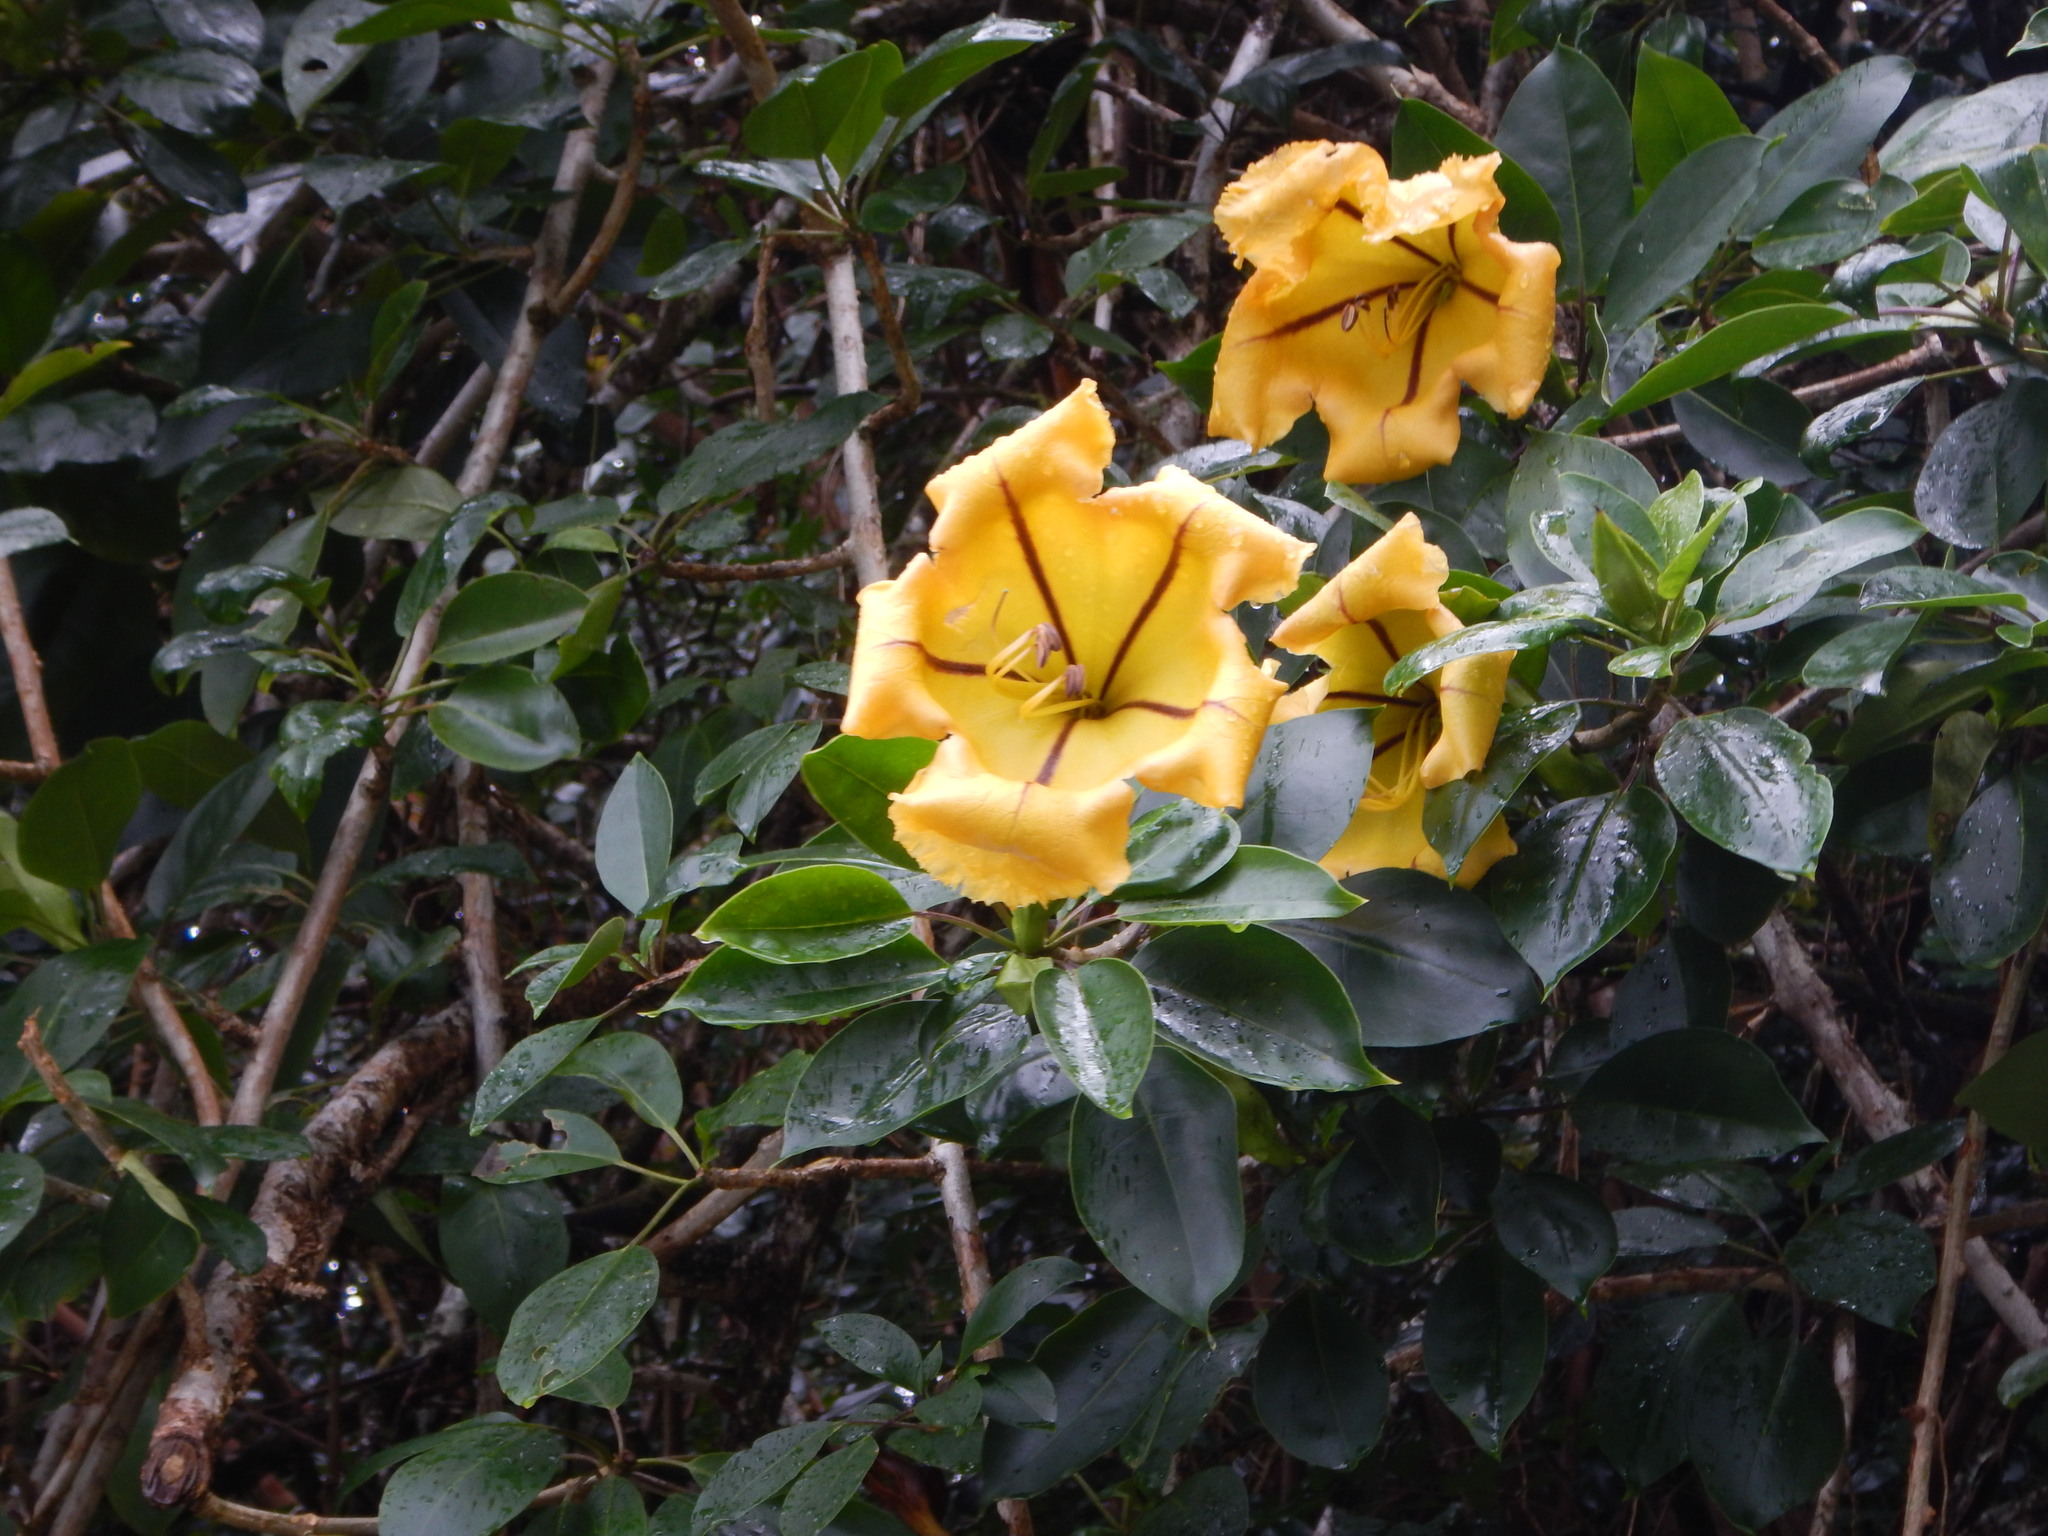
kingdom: Plantae
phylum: Tracheophyta
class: Magnoliopsida
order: Solanales
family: Solanaceae
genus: Solandra
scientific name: Solandra maxima
